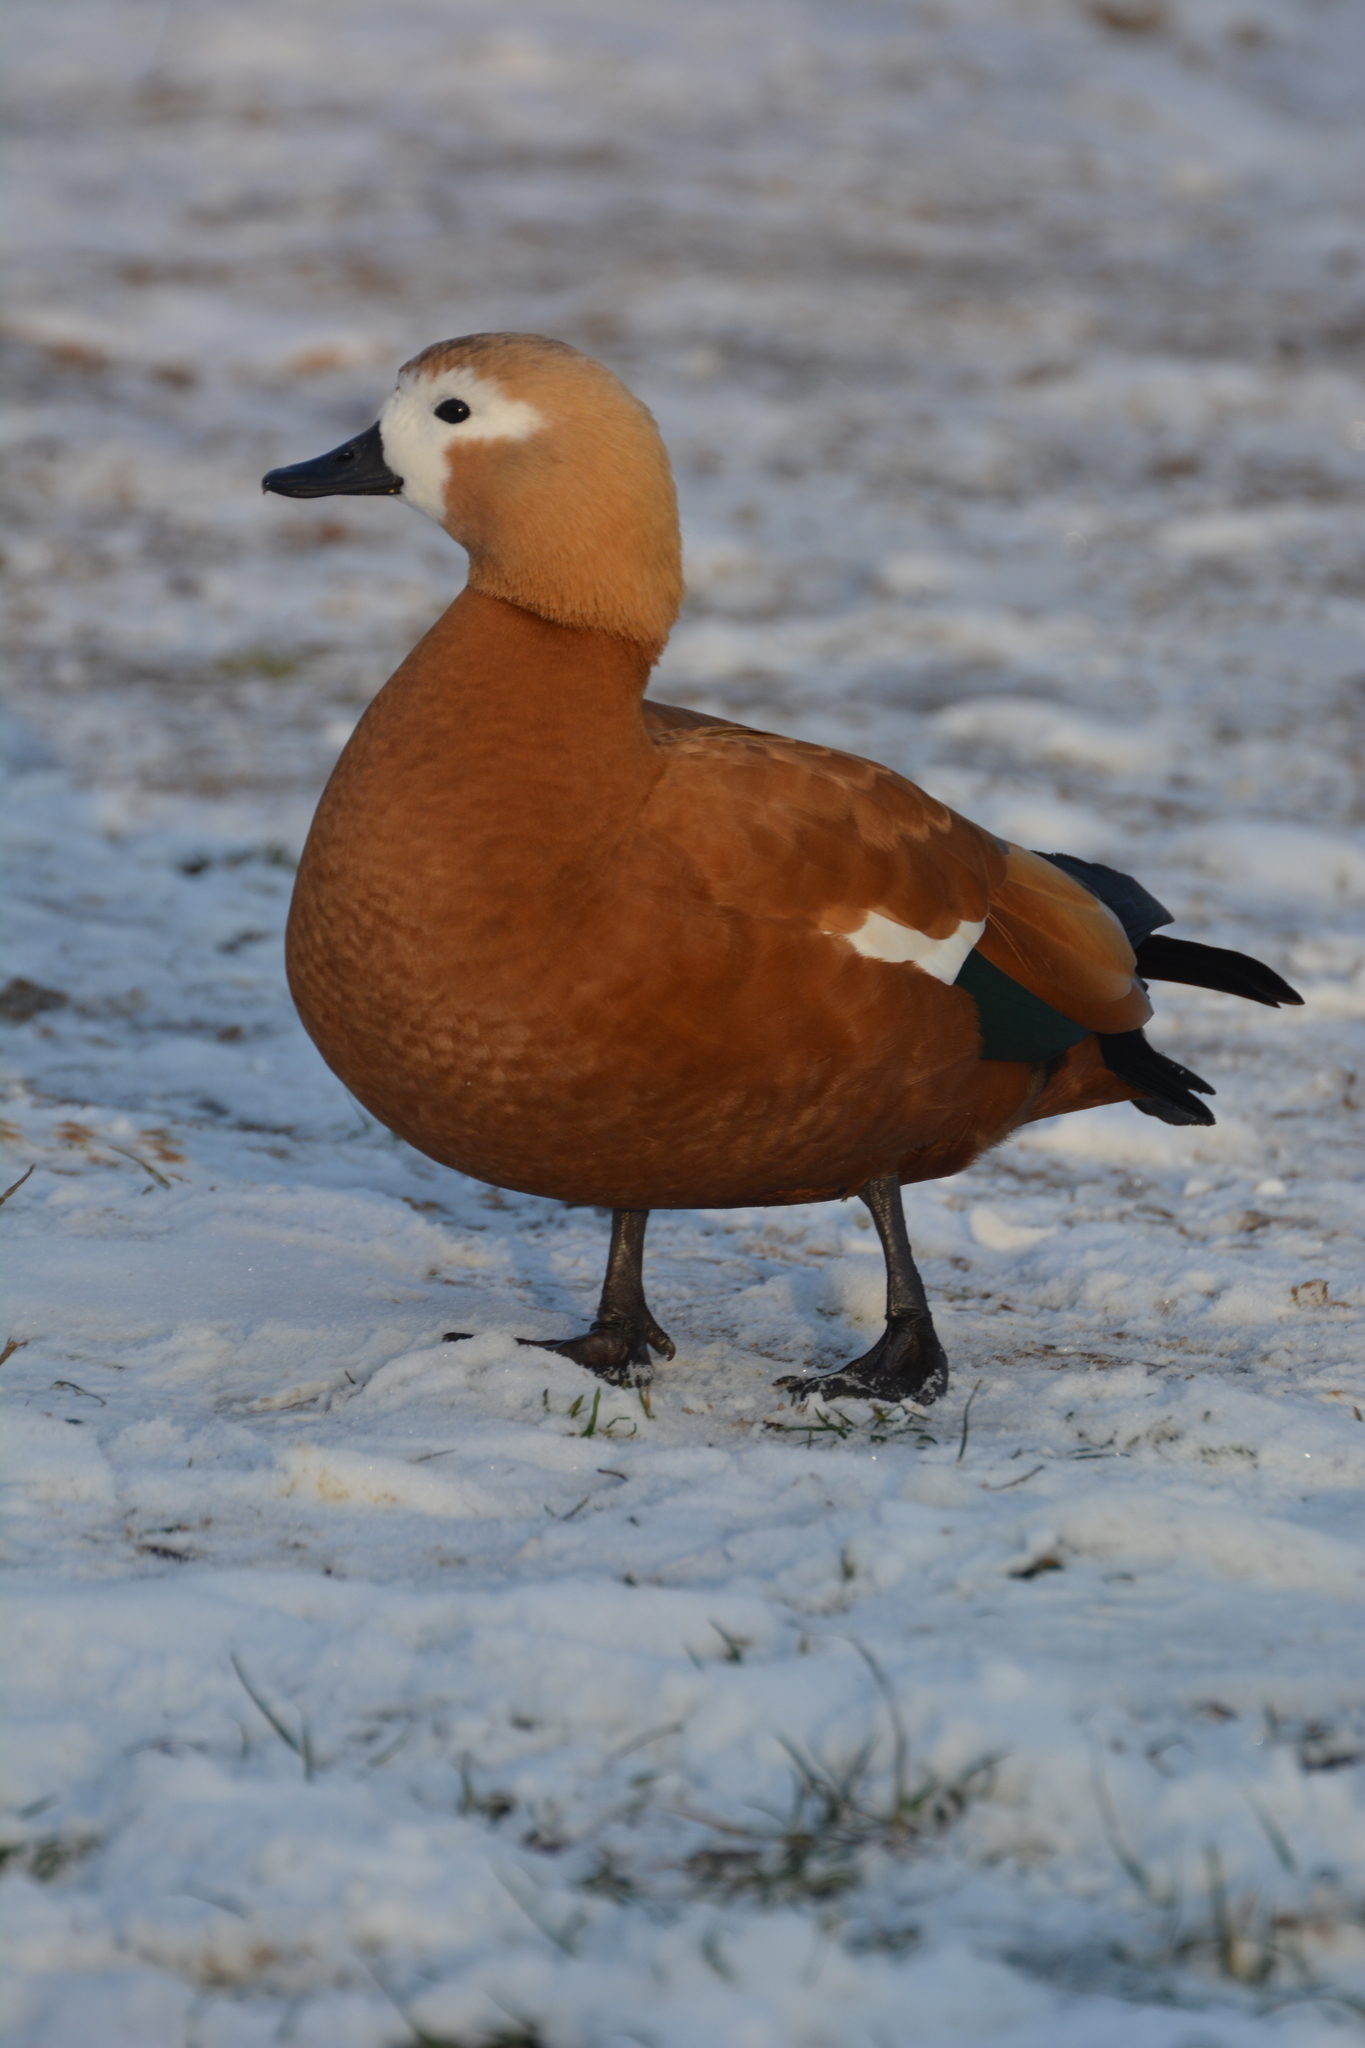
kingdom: Animalia
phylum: Chordata
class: Aves
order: Anseriformes
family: Anatidae
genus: Tadorna
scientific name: Tadorna ferruginea
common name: Ruddy shelduck
